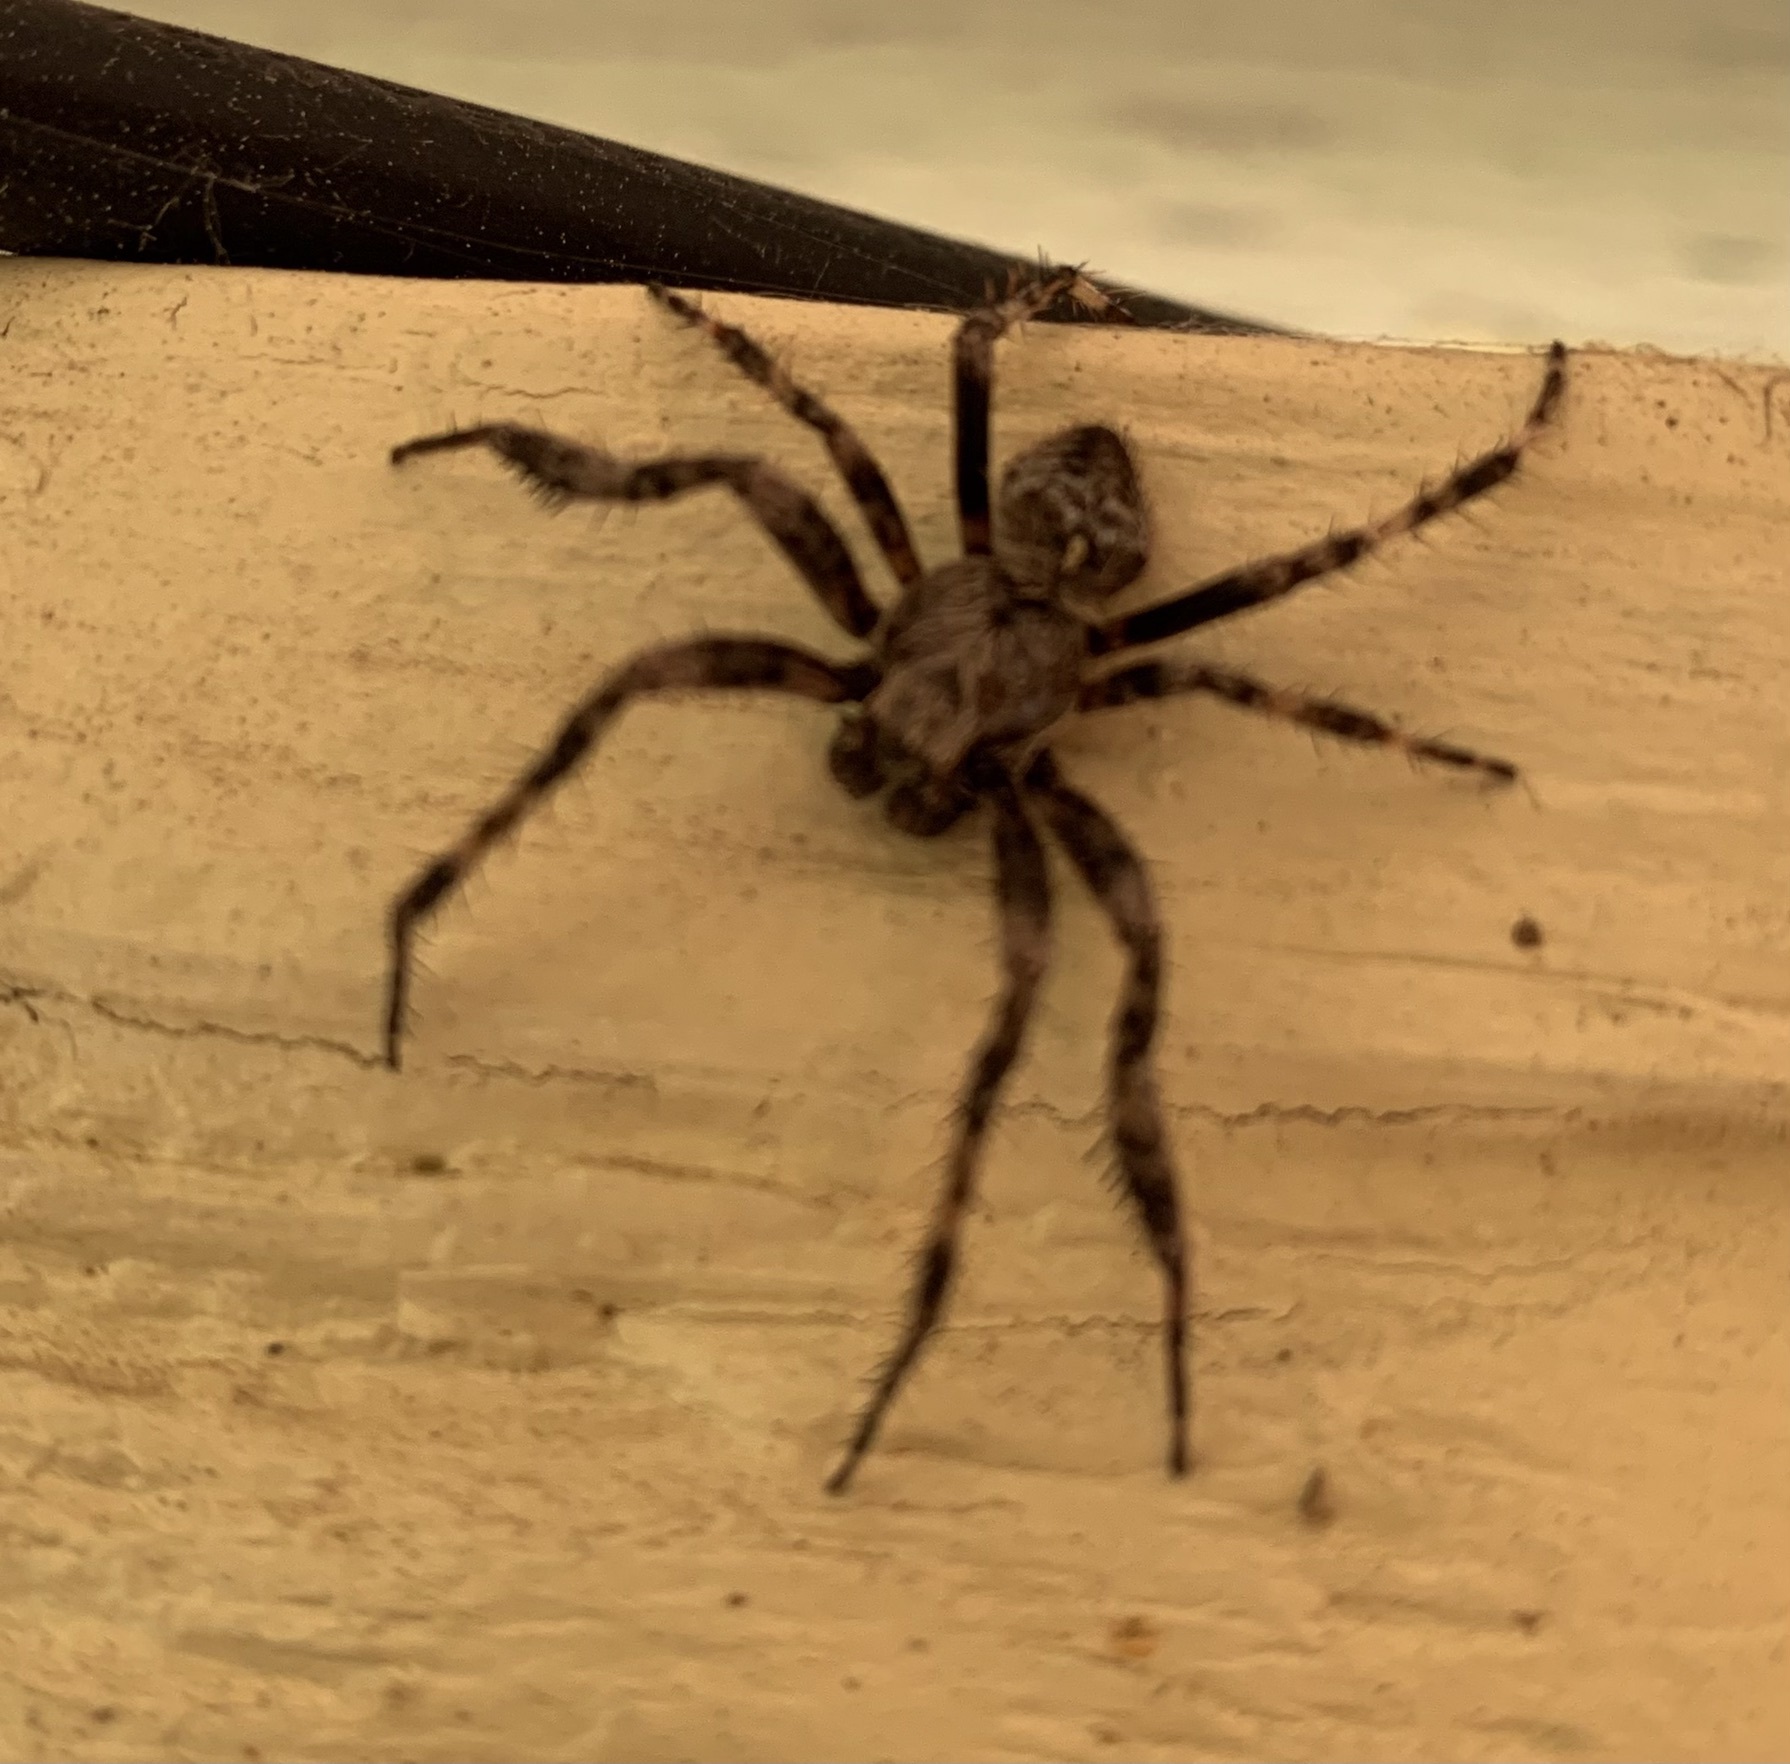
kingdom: Animalia
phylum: Arthropoda
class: Arachnida
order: Araneae
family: Araneidae
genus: Araneus
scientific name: Araneus saevus
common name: Fierce orbweaver
